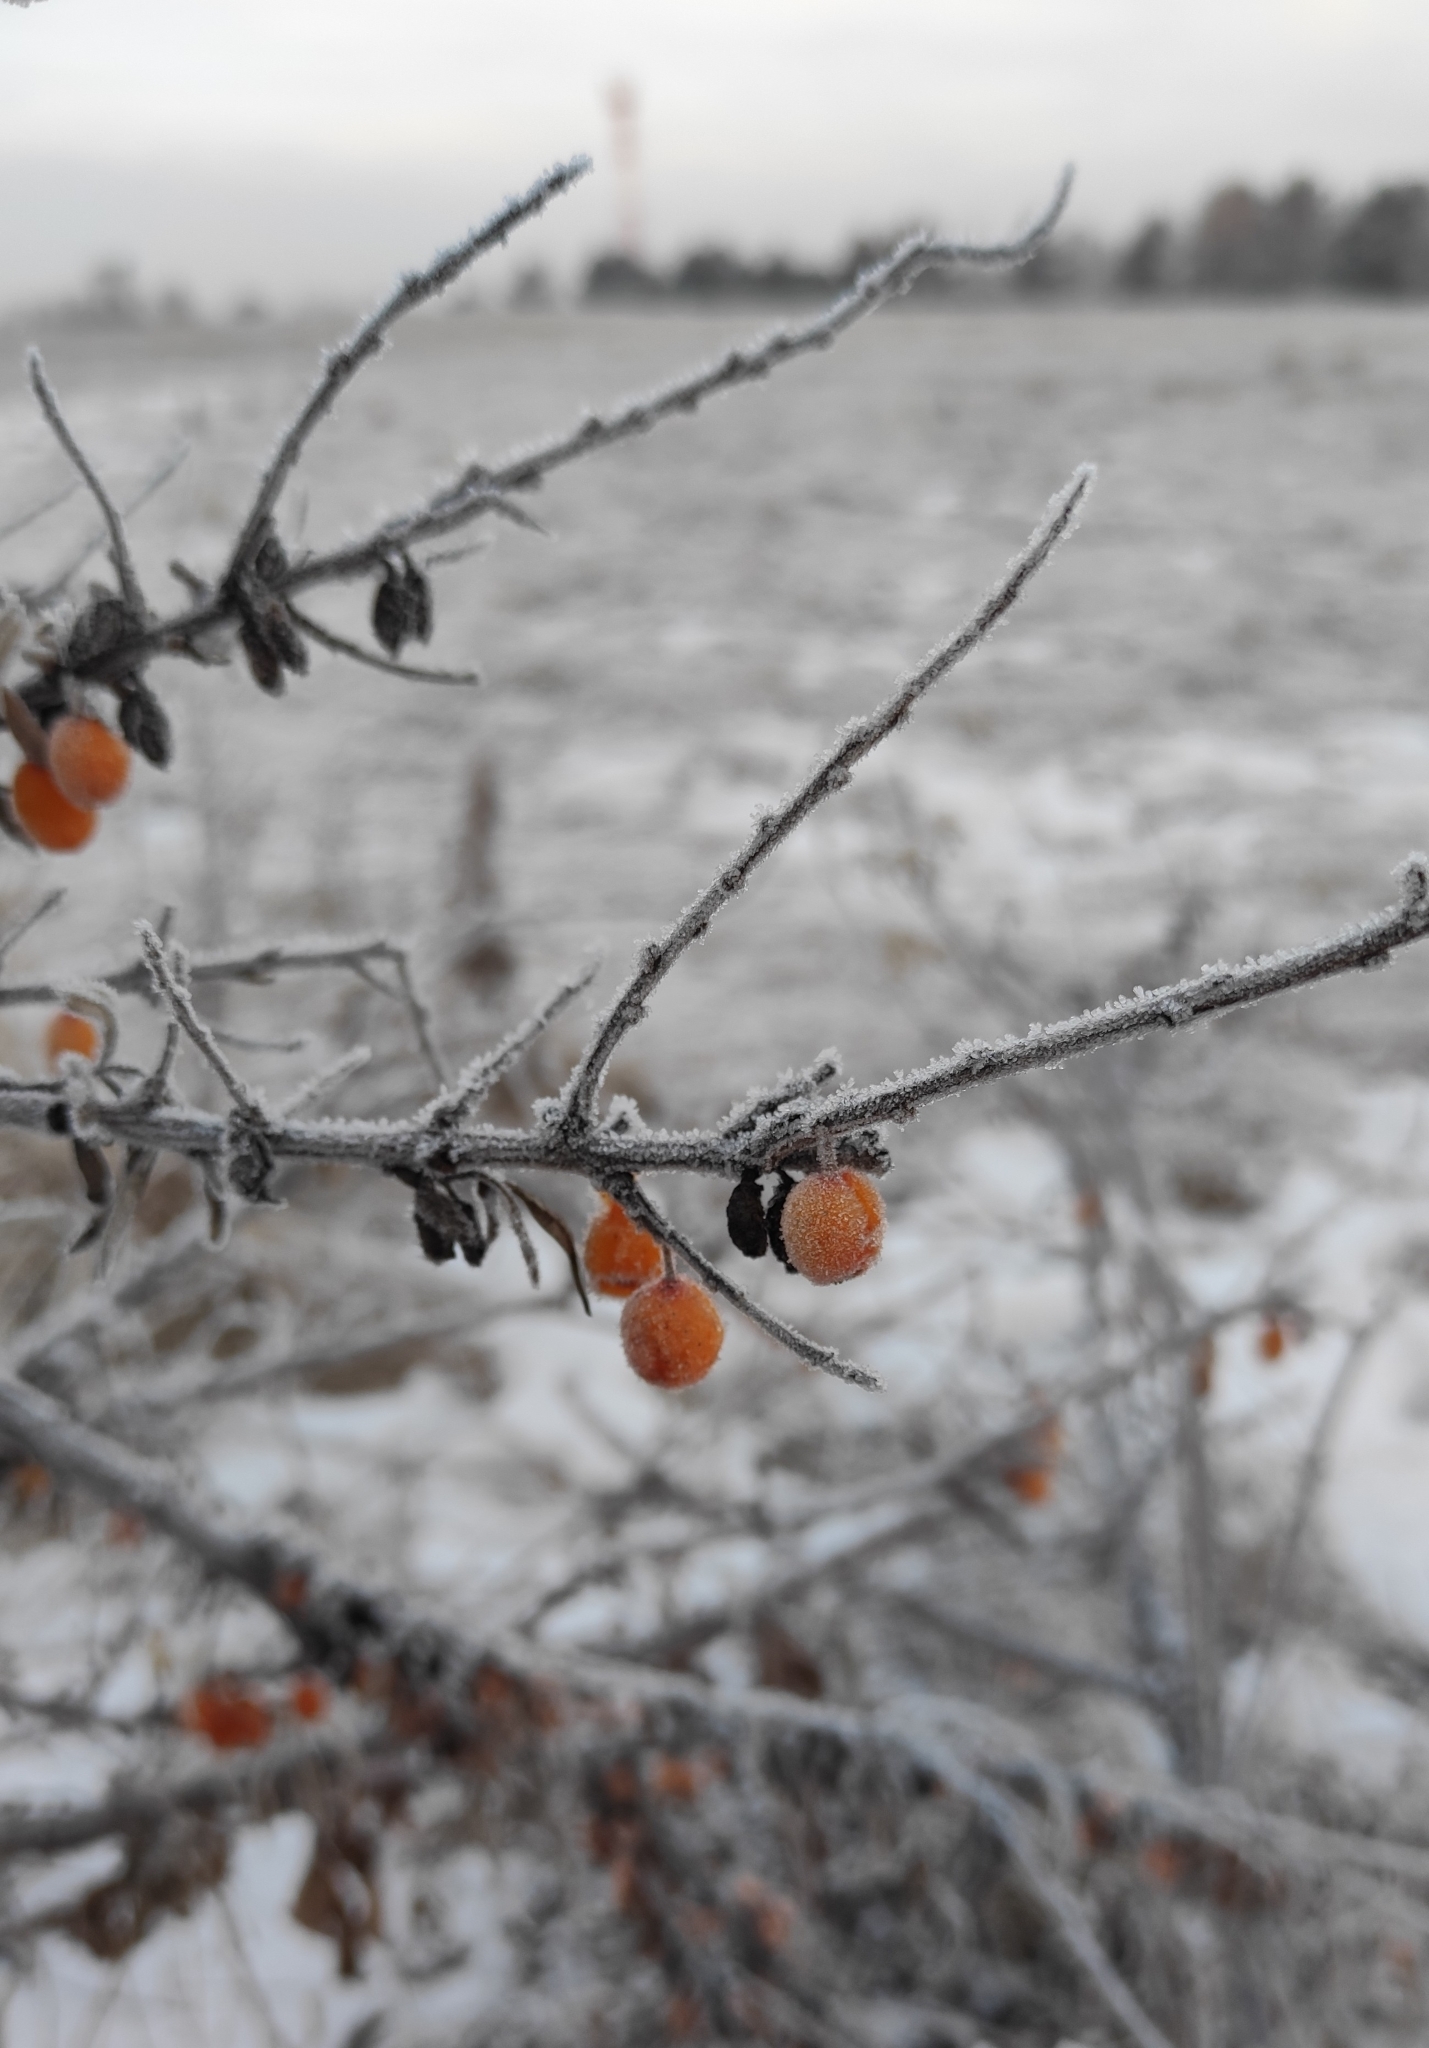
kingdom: Plantae
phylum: Tracheophyta
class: Magnoliopsida
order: Rosales
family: Elaeagnaceae
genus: Hippophae
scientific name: Hippophae rhamnoides
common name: Sea-buckthorn
